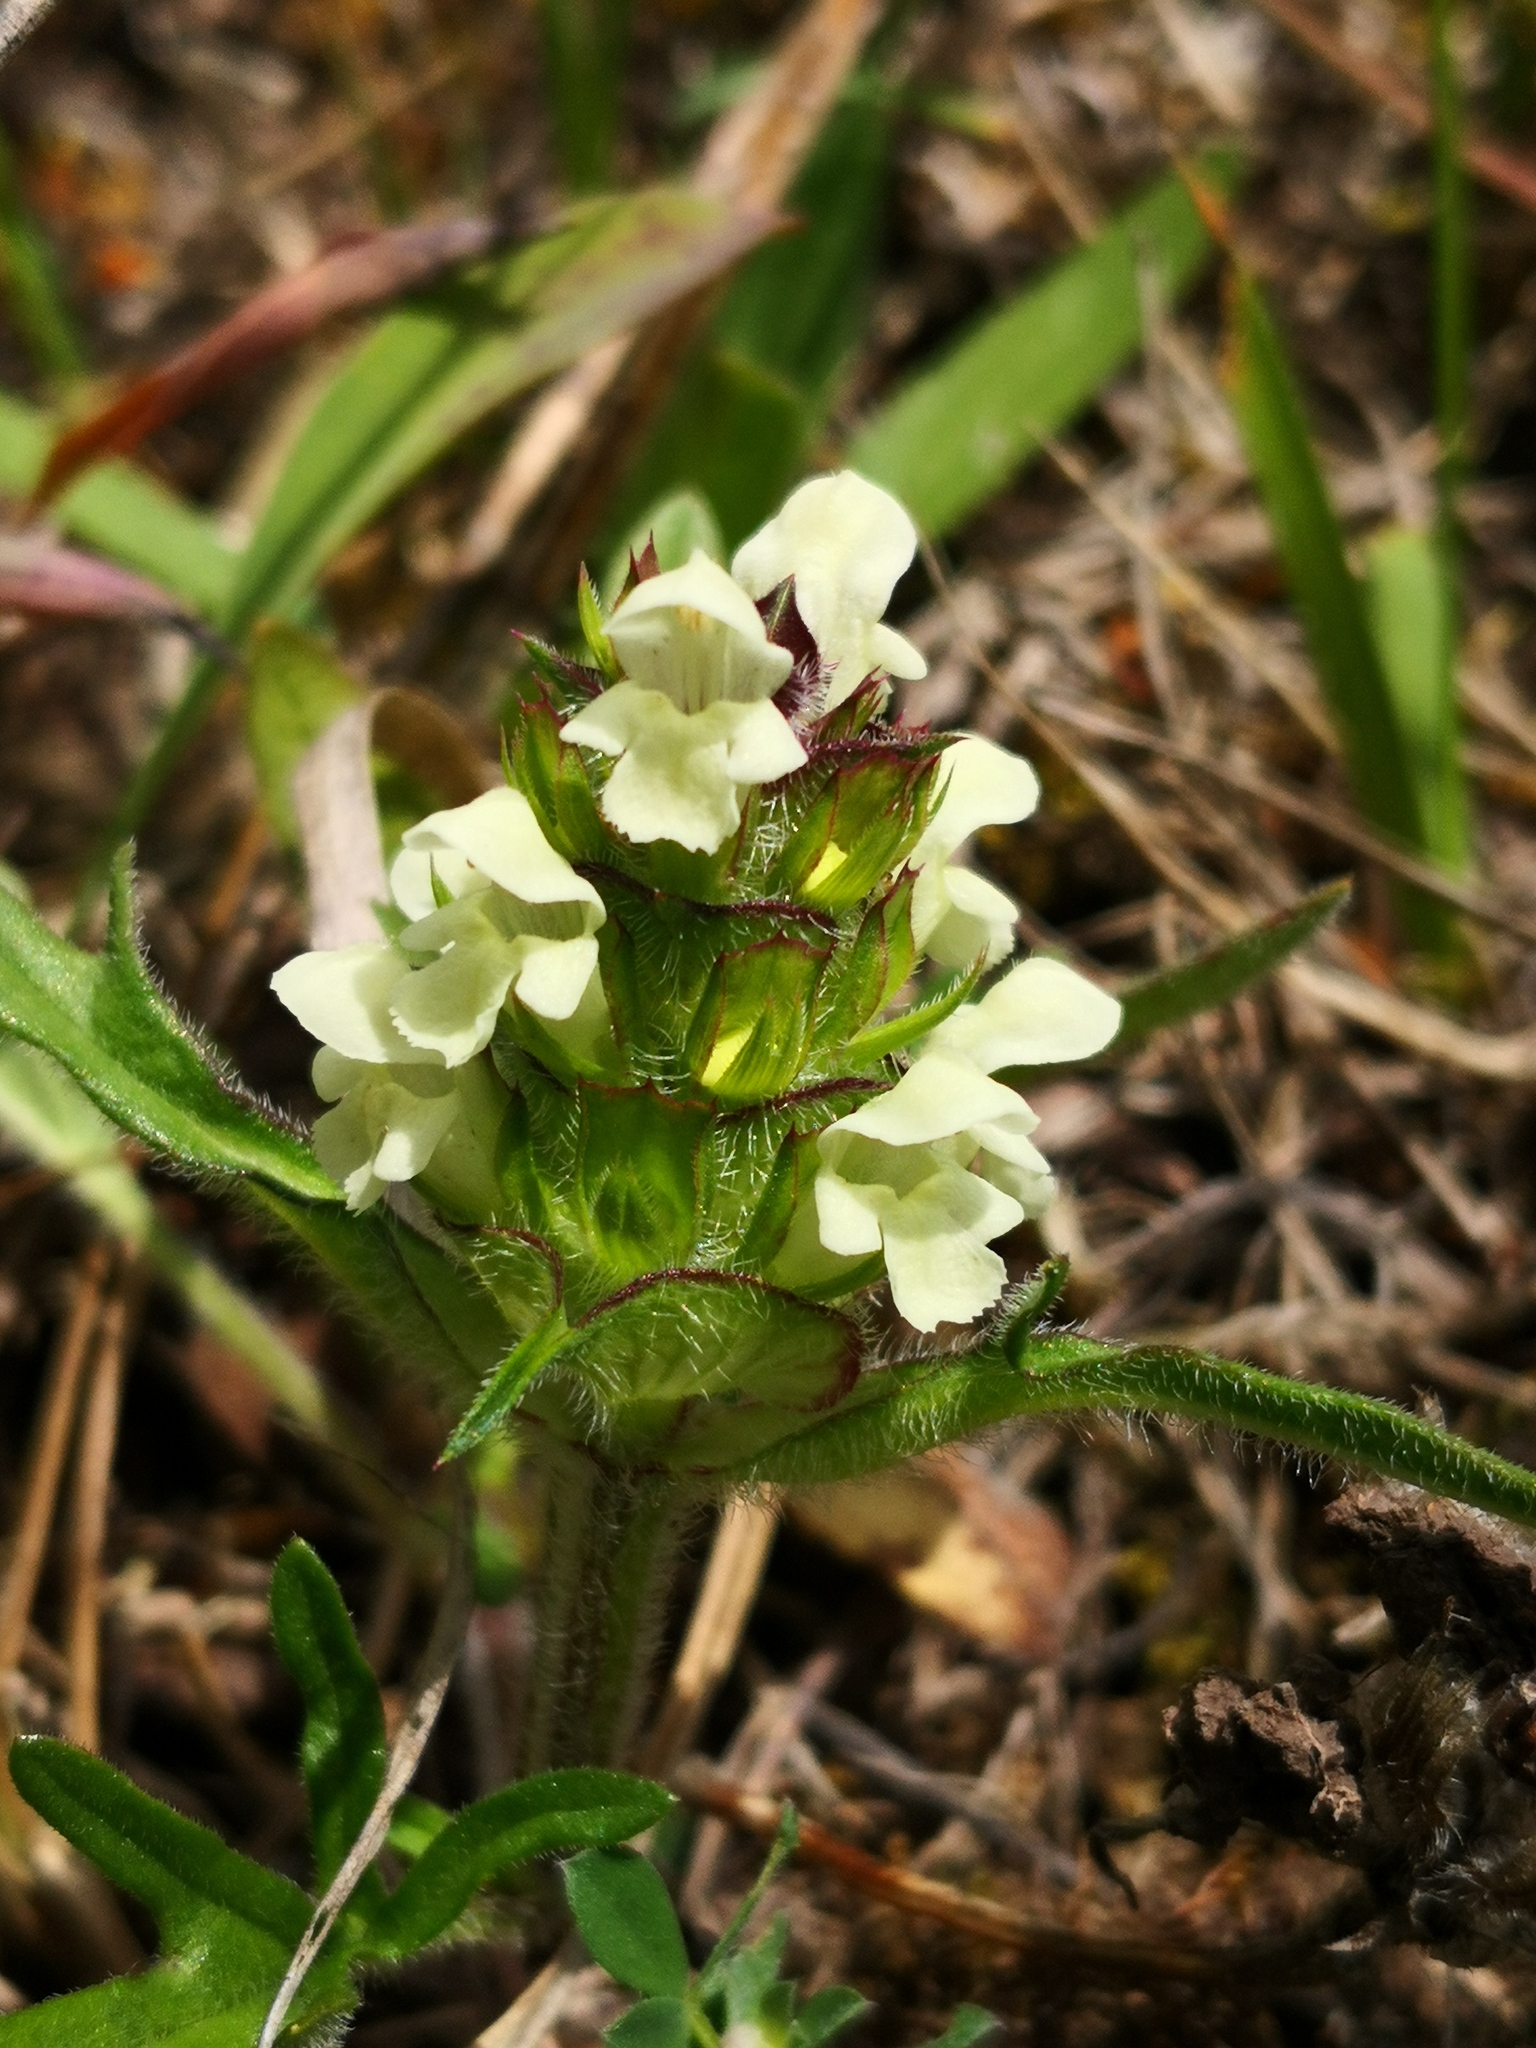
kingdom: Plantae
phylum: Tracheophyta
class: Magnoliopsida
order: Lamiales
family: Lamiaceae
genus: Prunella
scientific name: Prunella laciniata
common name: Cut-leaved selfheal
